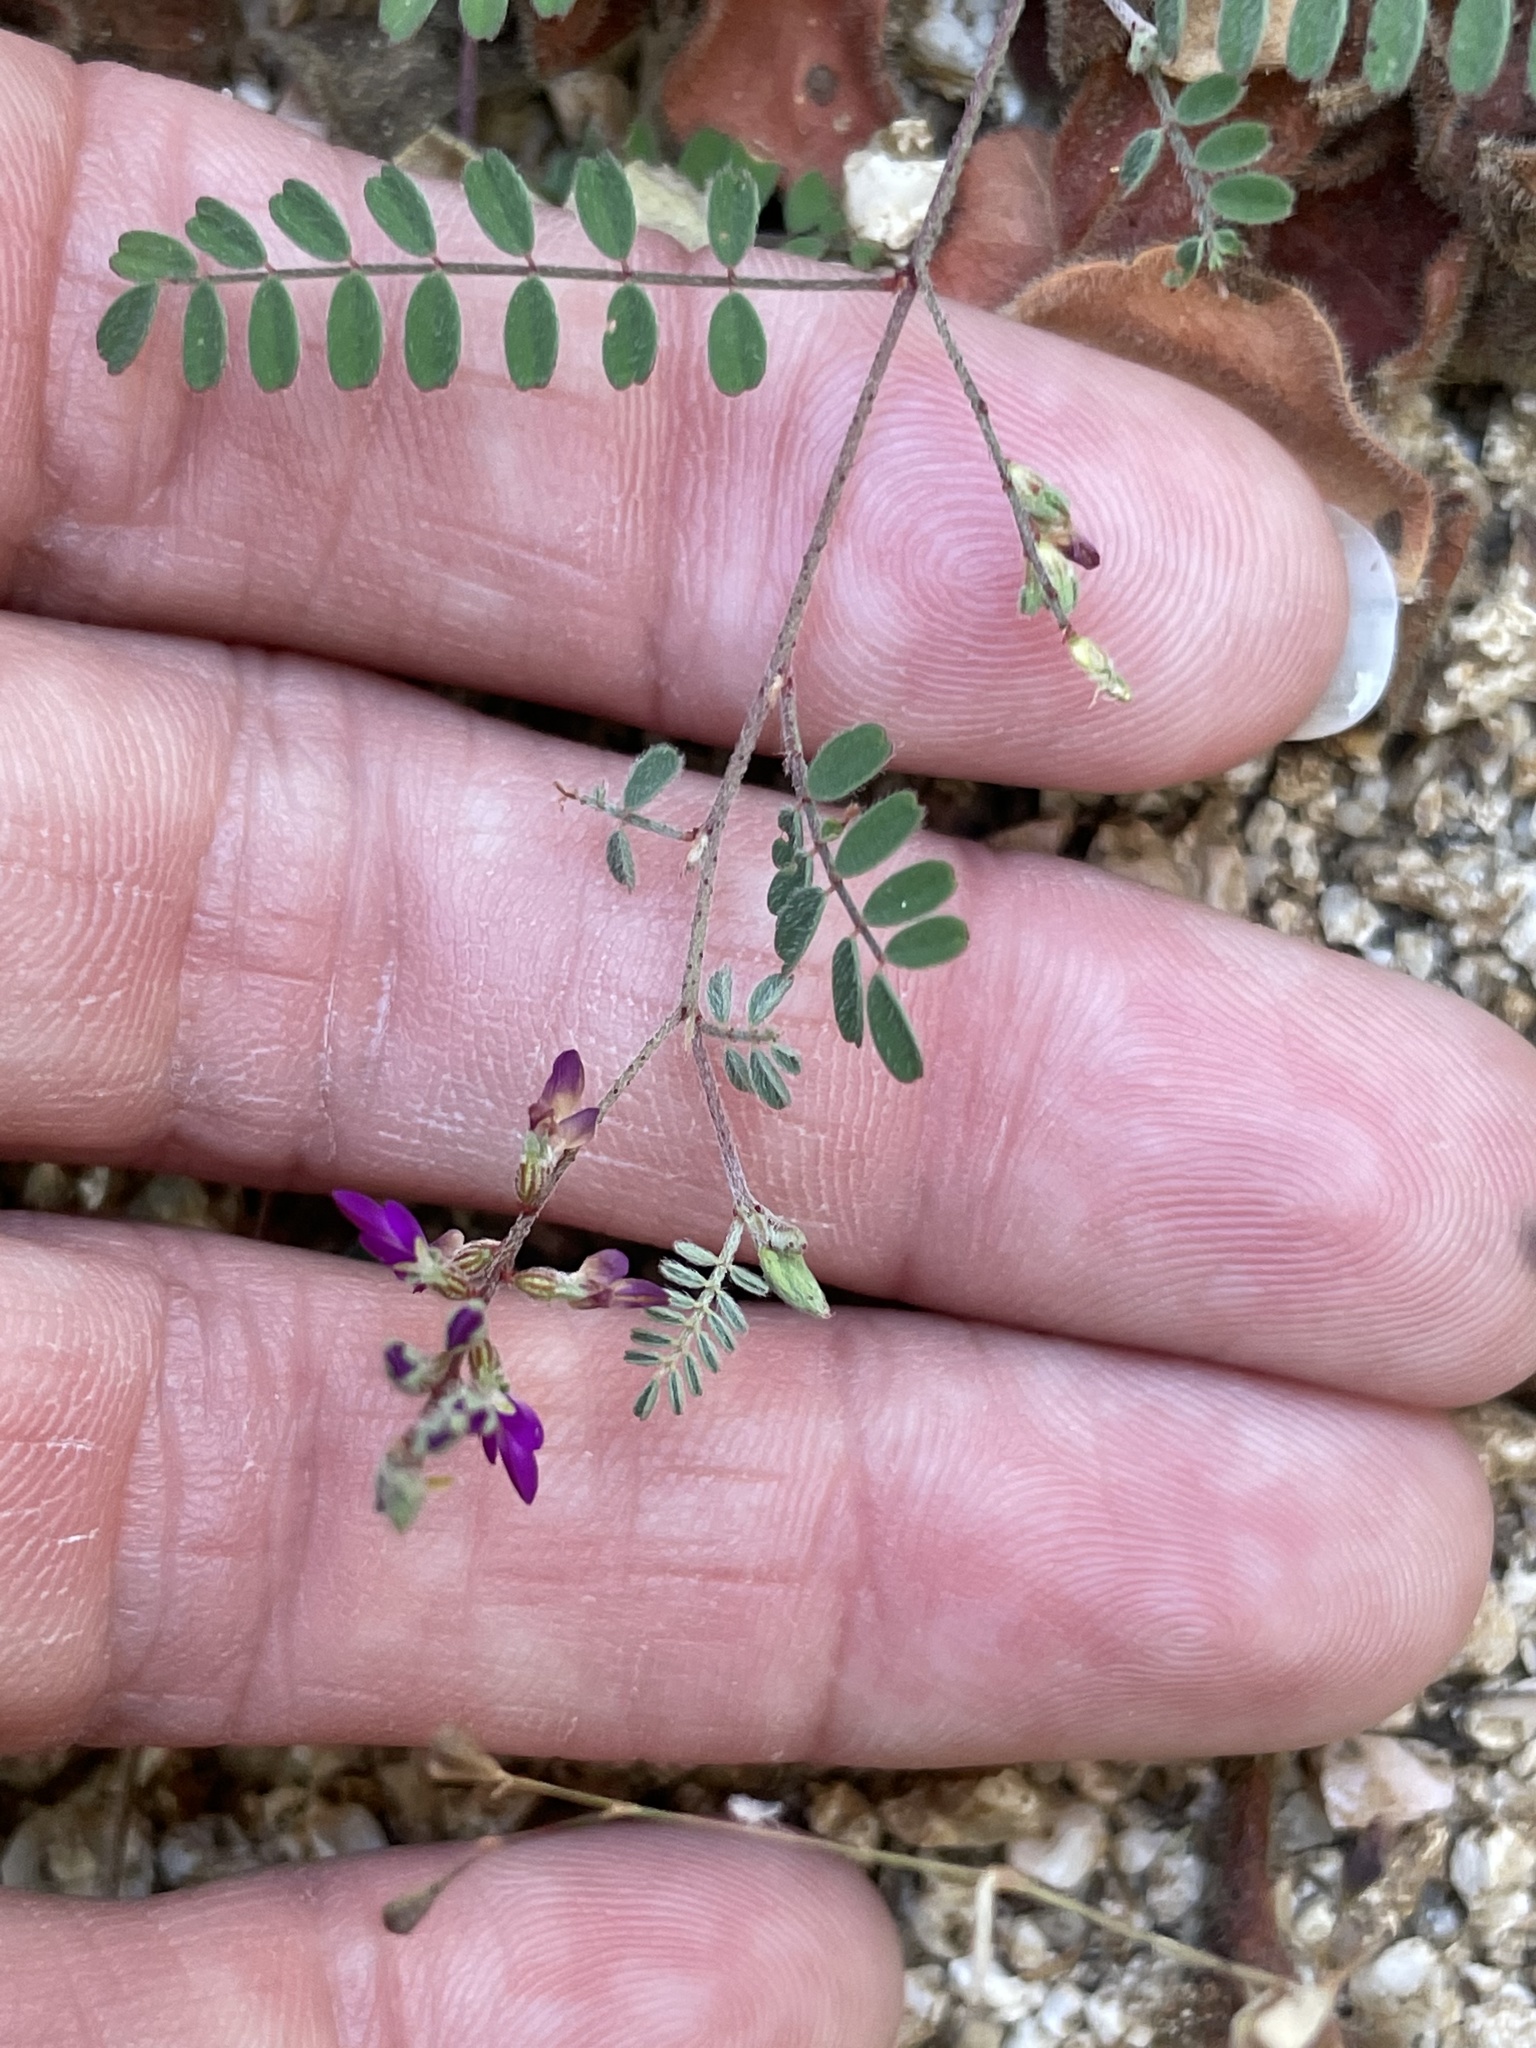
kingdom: Plantae
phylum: Tracheophyta
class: Magnoliopsida
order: Fabales
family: Fabaceae
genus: Marina
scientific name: Marina interstes
